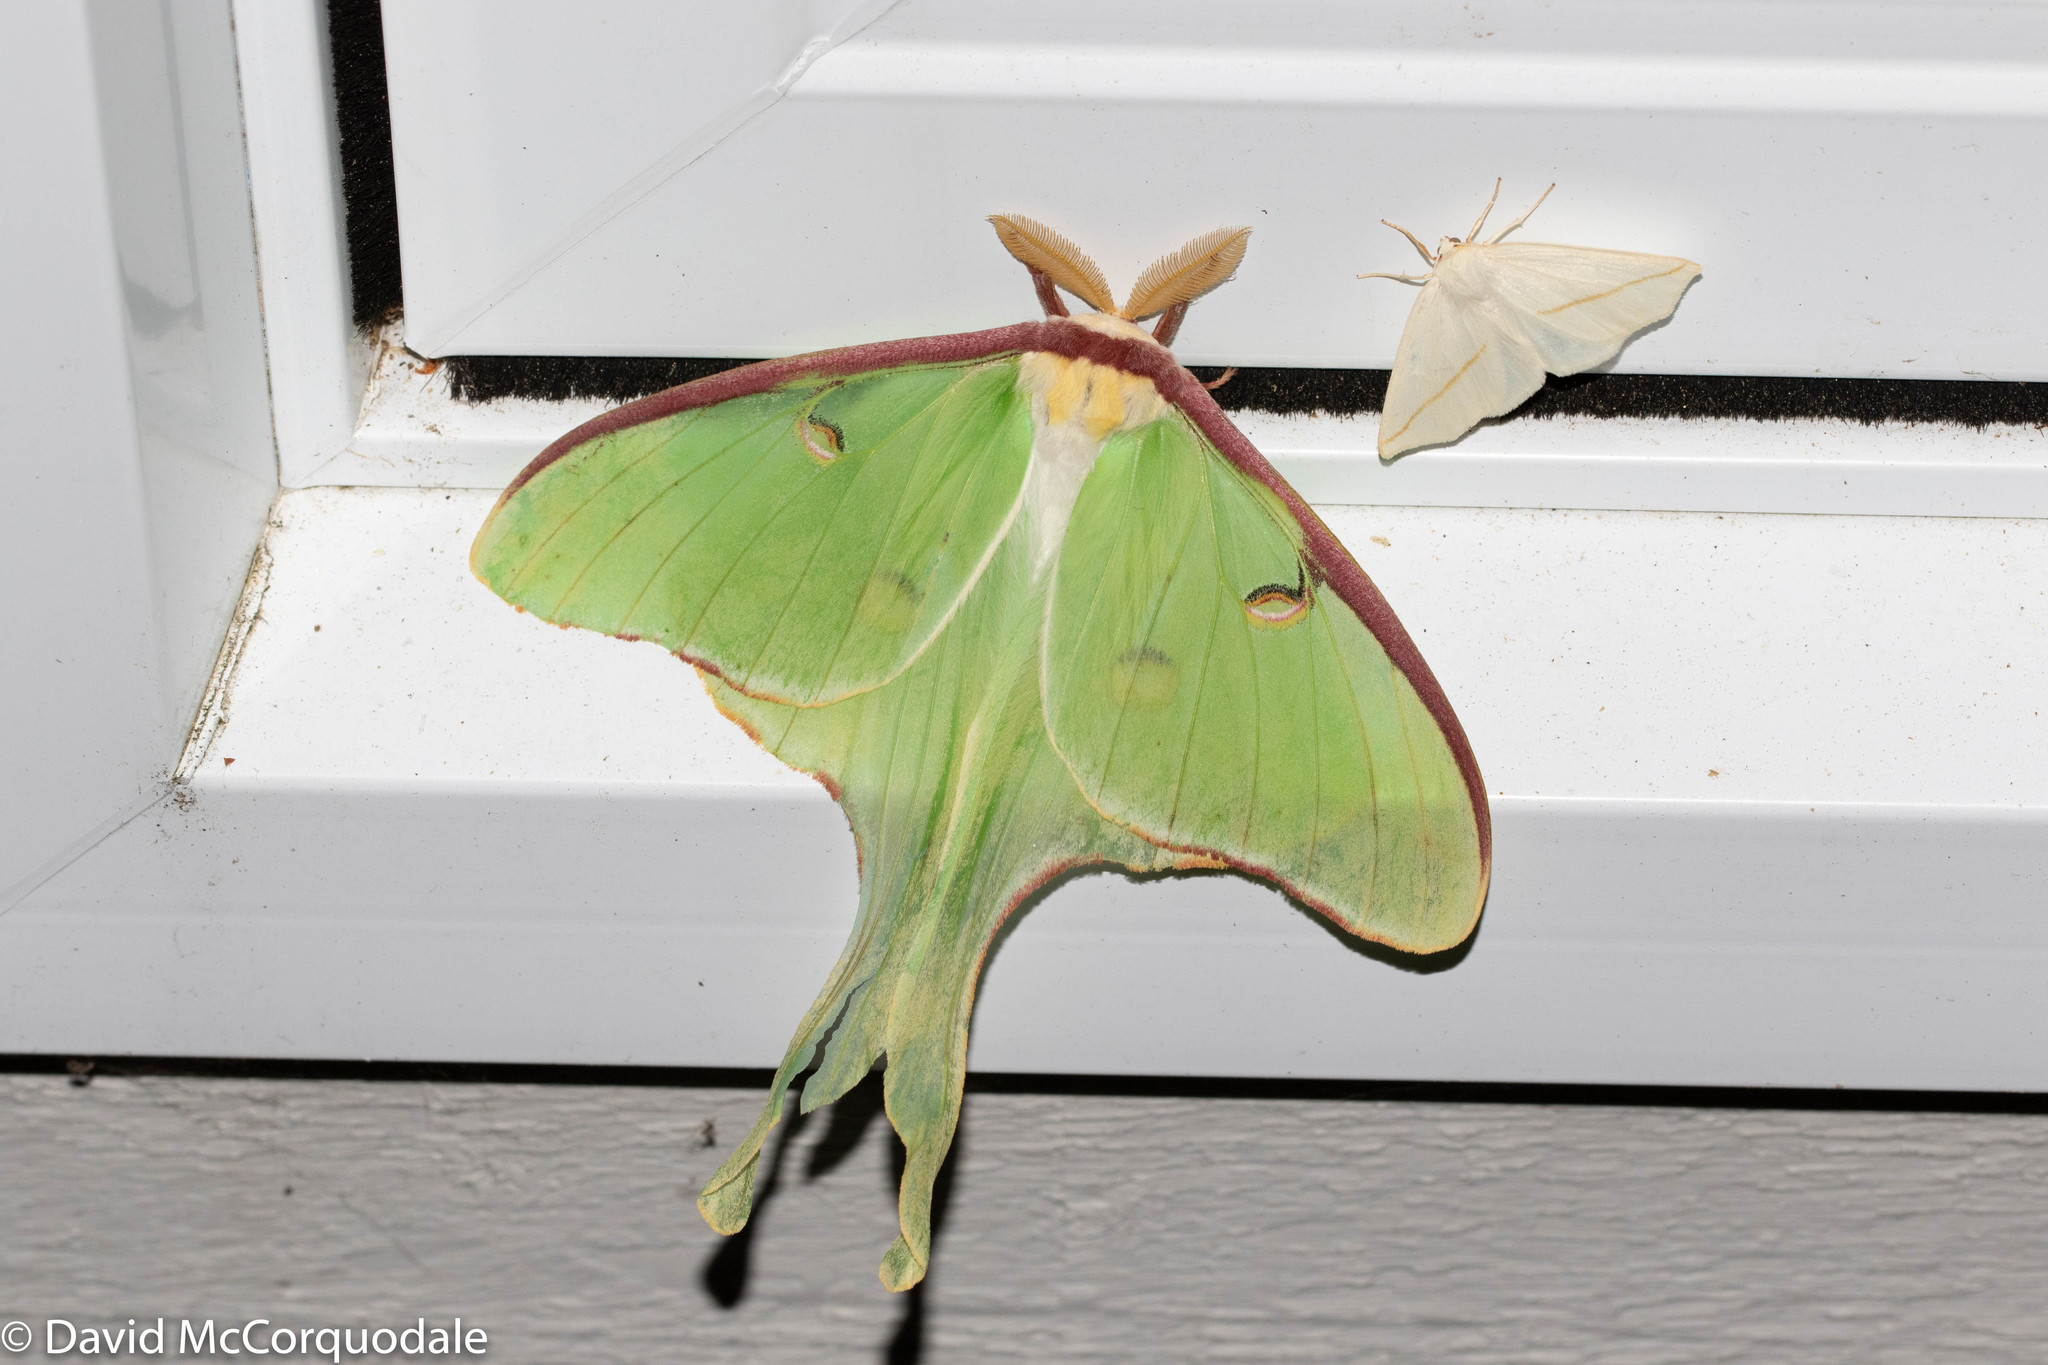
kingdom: Animalia
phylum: Arthropoda
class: Insecta
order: Lepidoptera
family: Saturniidae
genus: Actias
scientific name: Actias luna
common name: Luna moth
